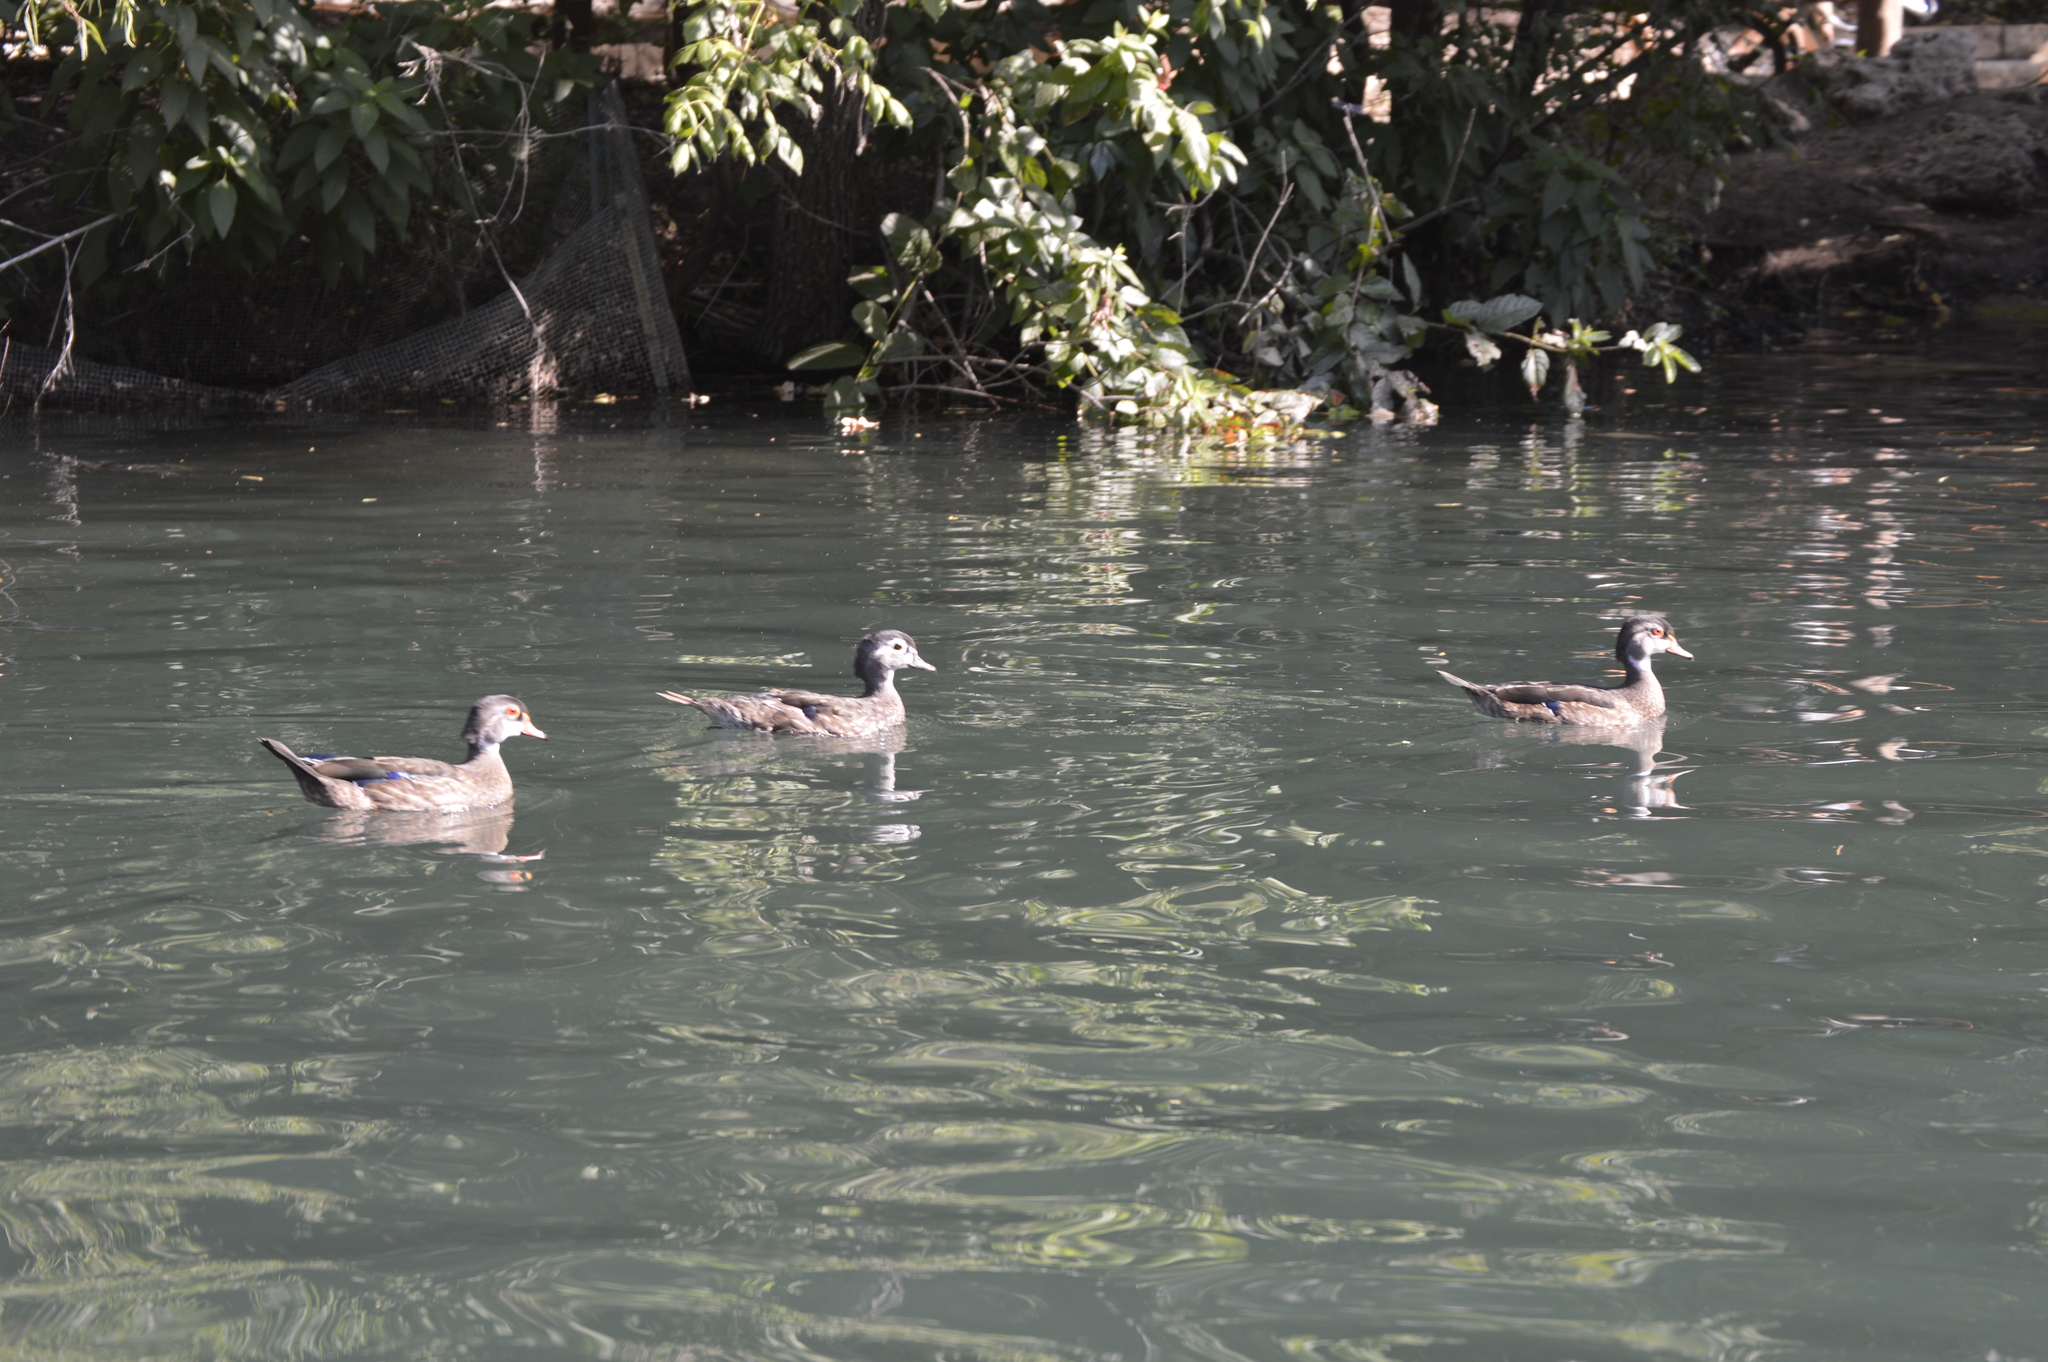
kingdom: Animalia
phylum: Chordata
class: Aves
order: Anseriformes
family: Anatidae
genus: Aix
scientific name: Aix sponsa
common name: Wood duck
